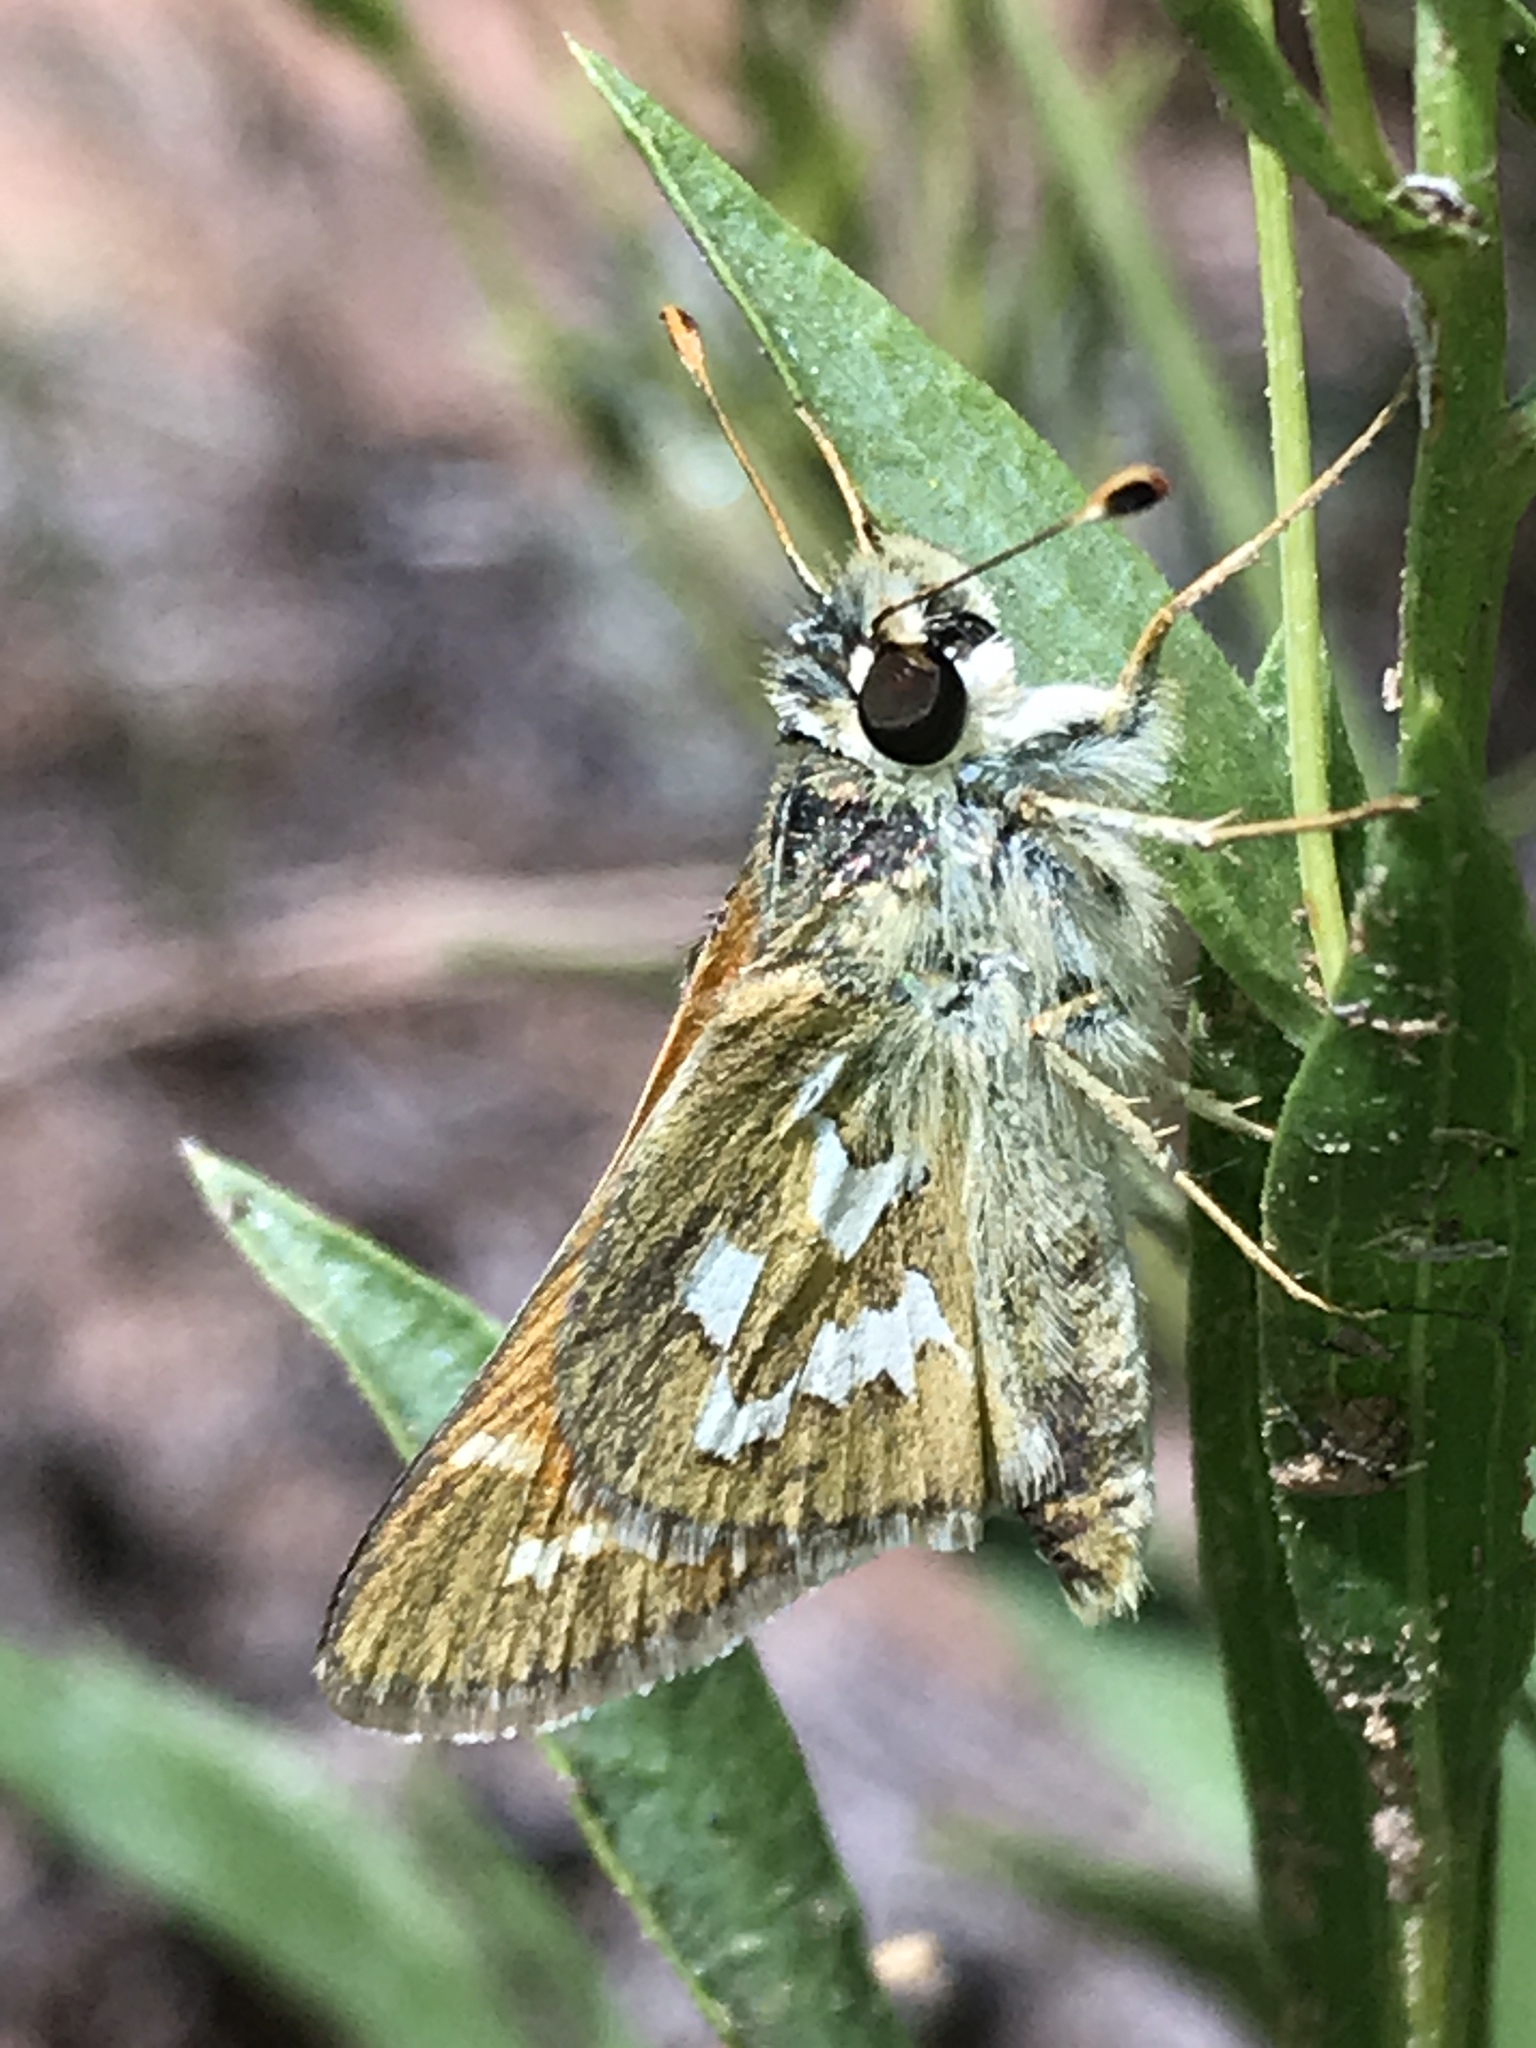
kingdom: Animalia
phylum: Arthropoda
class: Insecta
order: Lepidoptera
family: Hesperiidae
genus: Hesperia
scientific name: Hesperia comma
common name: Common branded skipper
